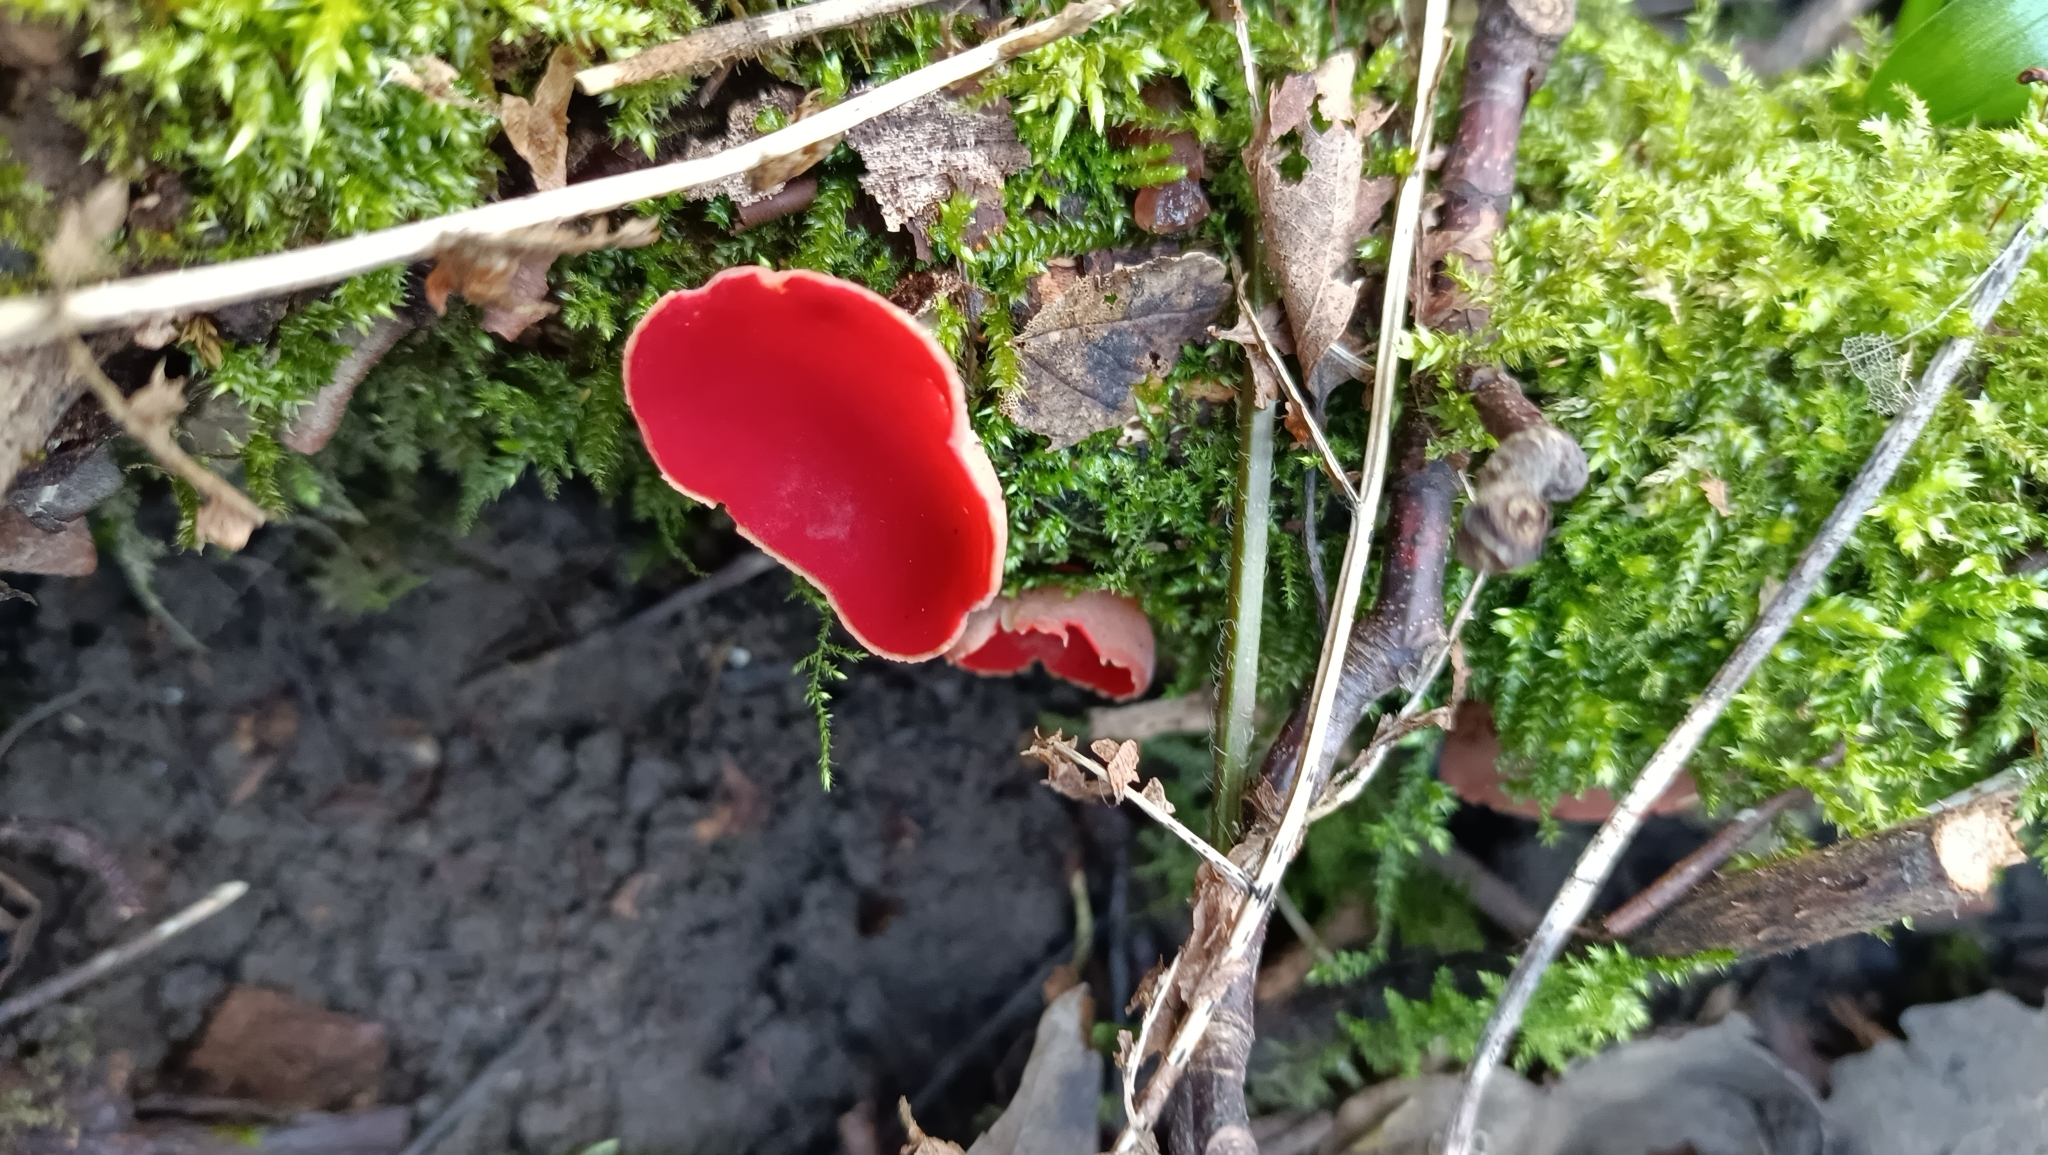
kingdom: Fungi
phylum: Ascomycota
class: Pezizomycetes
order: Pezizales
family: Sarcoscyphaceae
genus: Sarcoscypha
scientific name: Sarcoscypha
